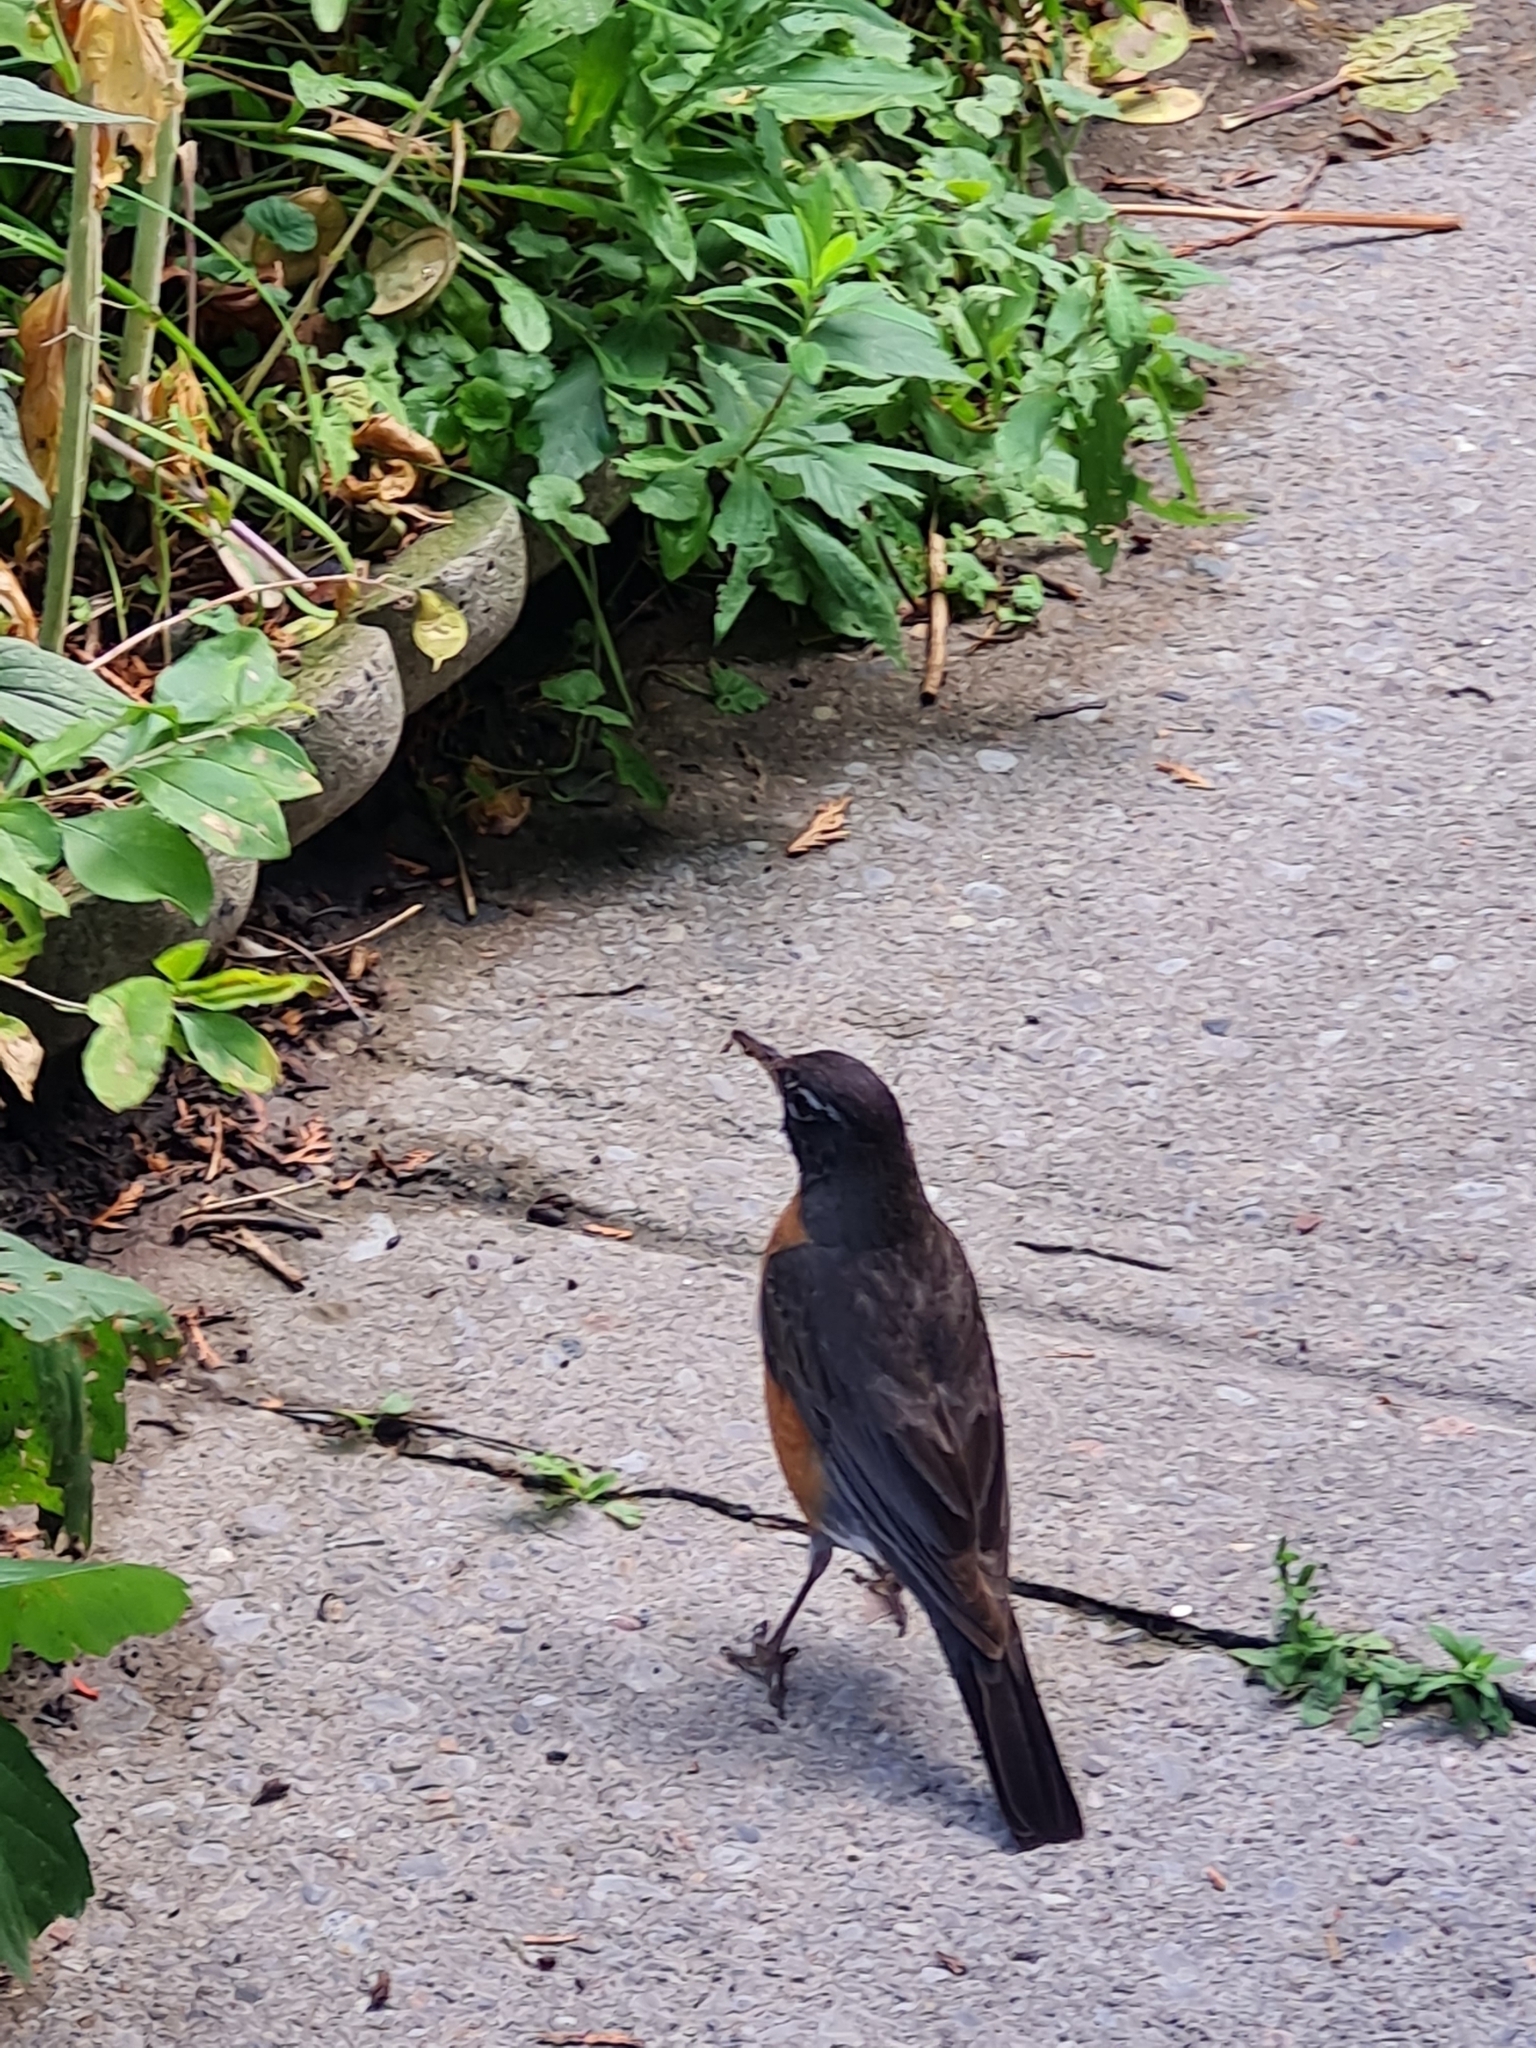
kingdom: Animalia
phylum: Chordata
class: Aves
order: Passeriformes
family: Turdidae
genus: Turdus
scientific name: Turdus migratorius
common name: American robin
